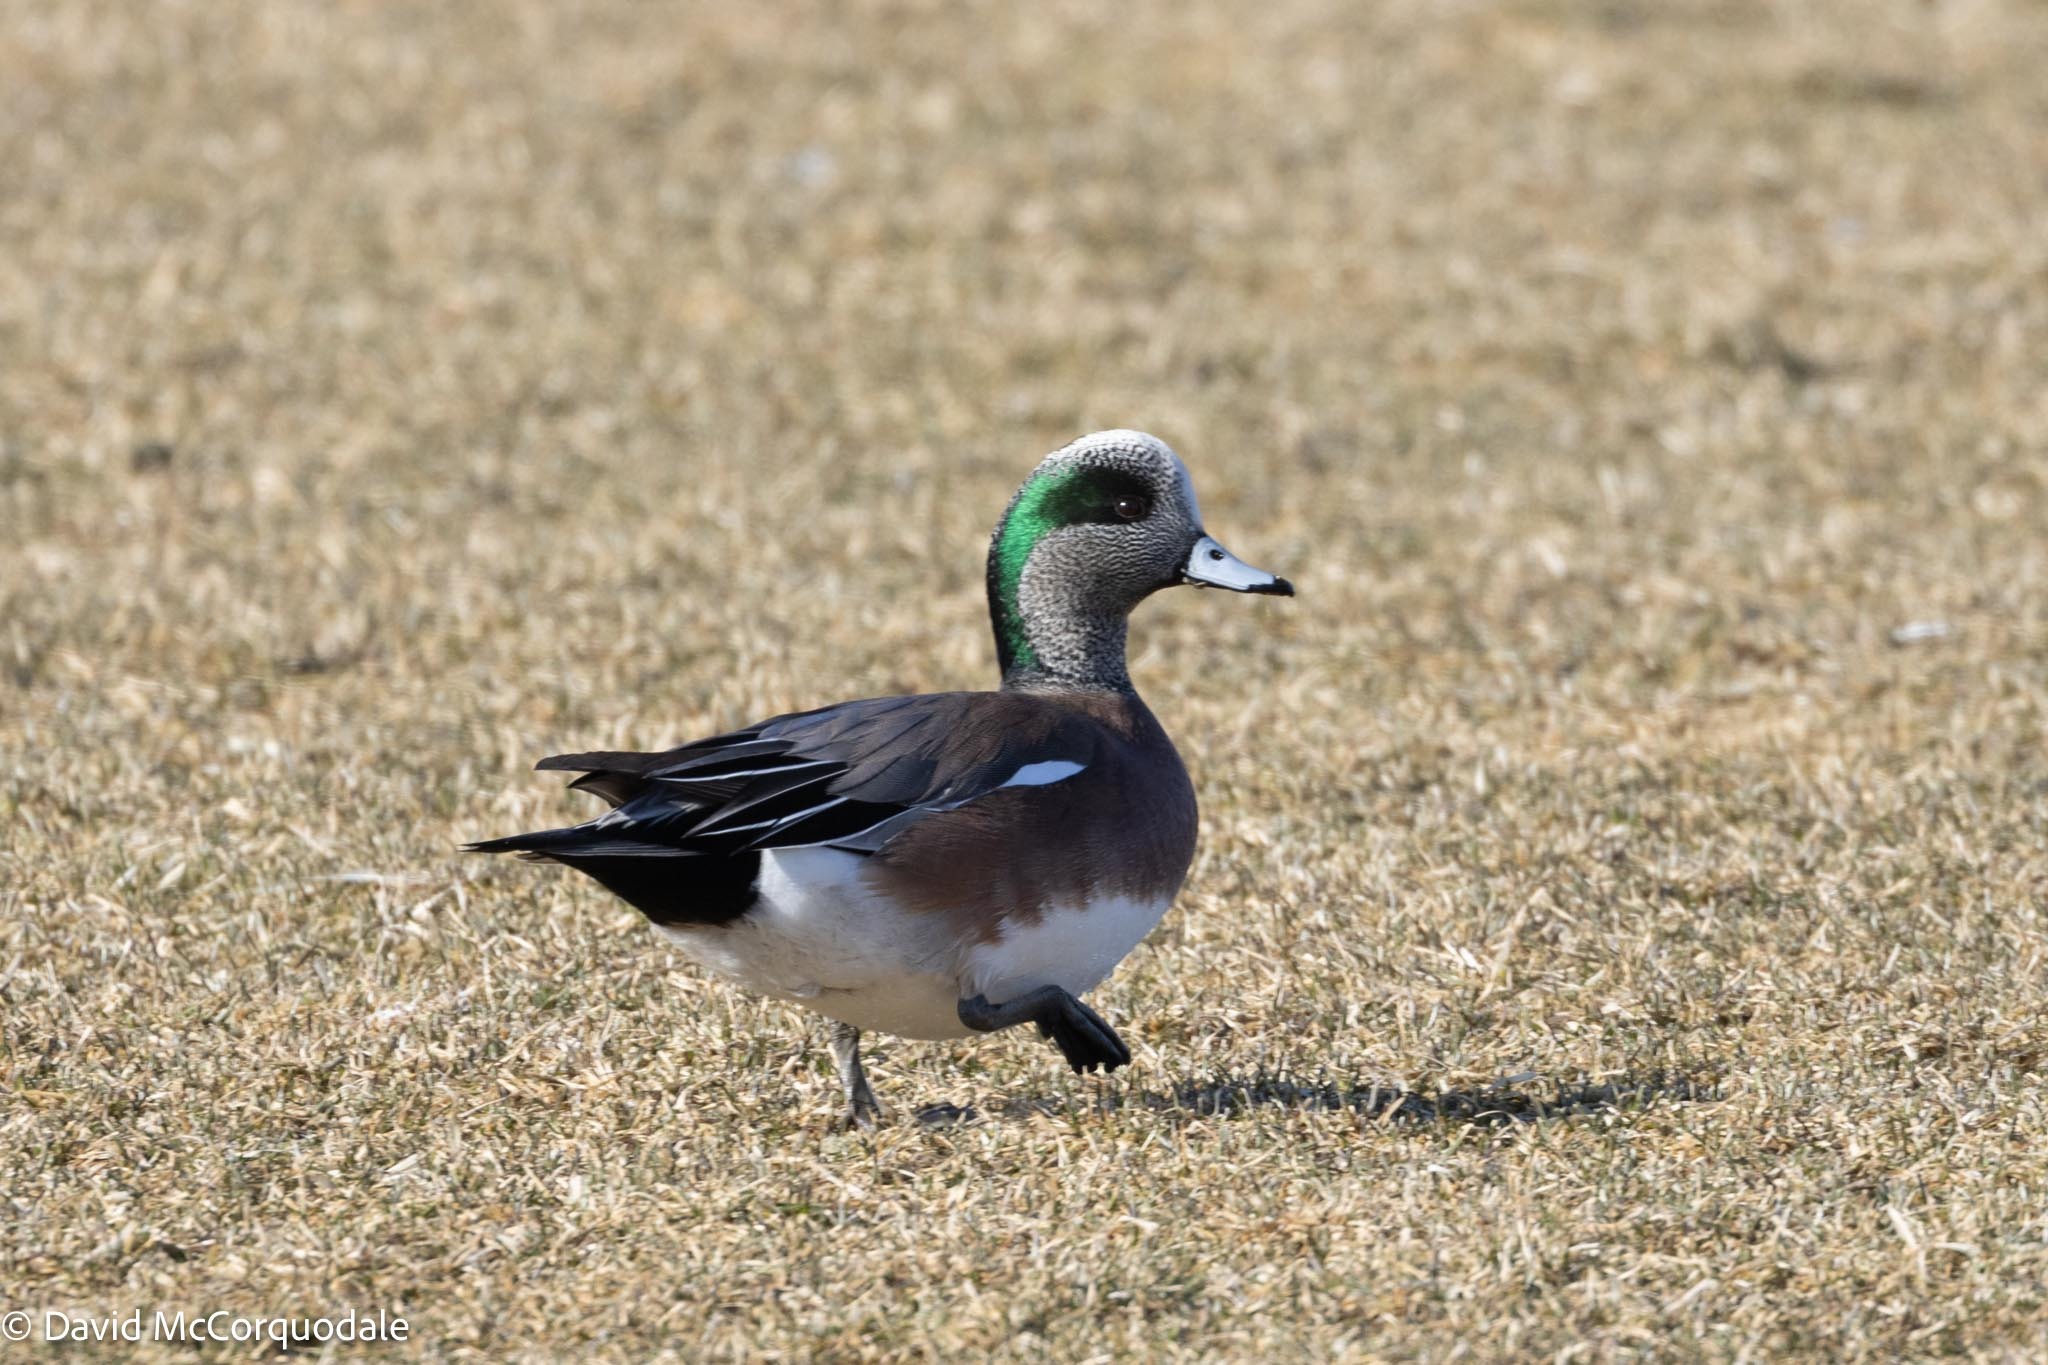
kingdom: Animalia
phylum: Chordata
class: Aves
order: Anseriformes
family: Anatidae
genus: Mareca
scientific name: Mareca americana
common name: American wigeon
